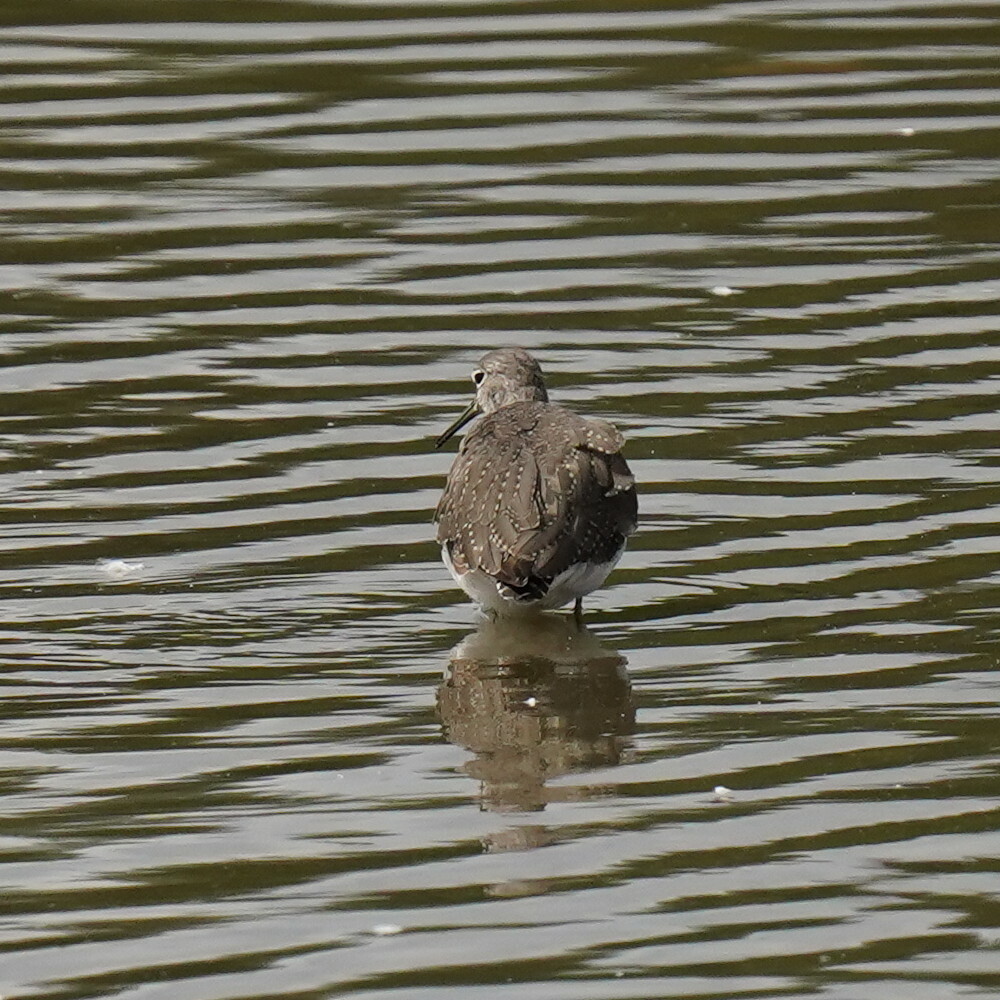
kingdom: Animalia
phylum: Chordata
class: Aves
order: Charadriiformes
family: Scolopacidae
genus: Tringa
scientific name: Tringa ochropus
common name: Green sandpiper
